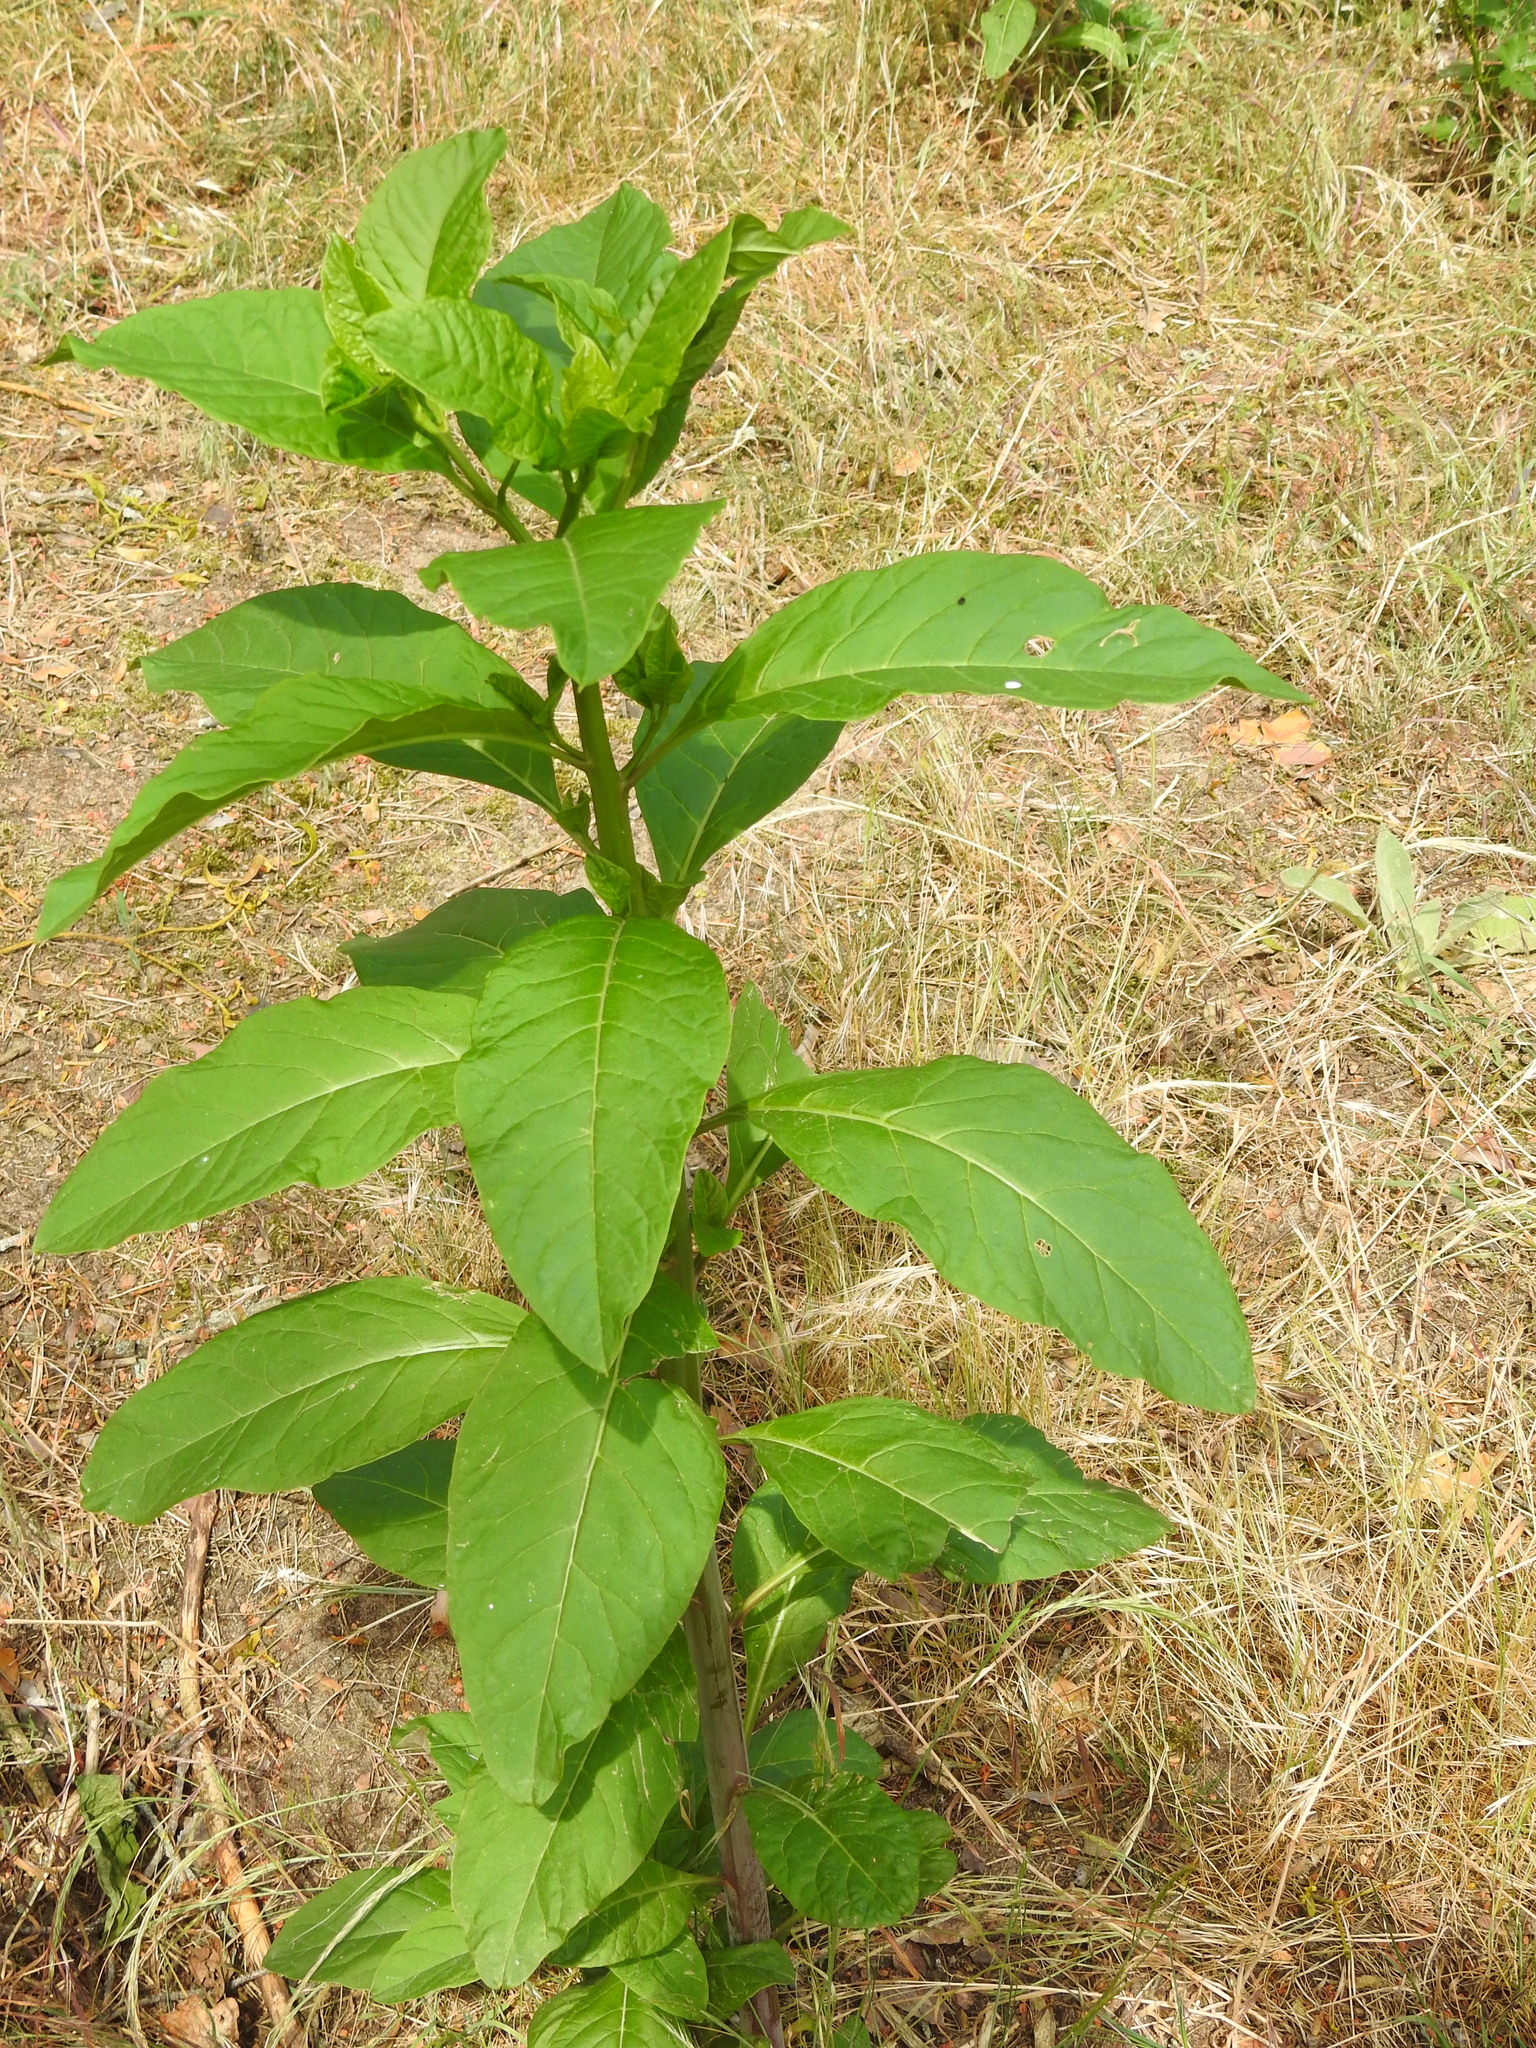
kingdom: Plantae
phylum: Tracheophyta
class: Magnoliopsida
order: Caryophyllales
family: Phytolaccaceae
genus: Phytolacca
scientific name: Phytolacca americana
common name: American pokeweed
